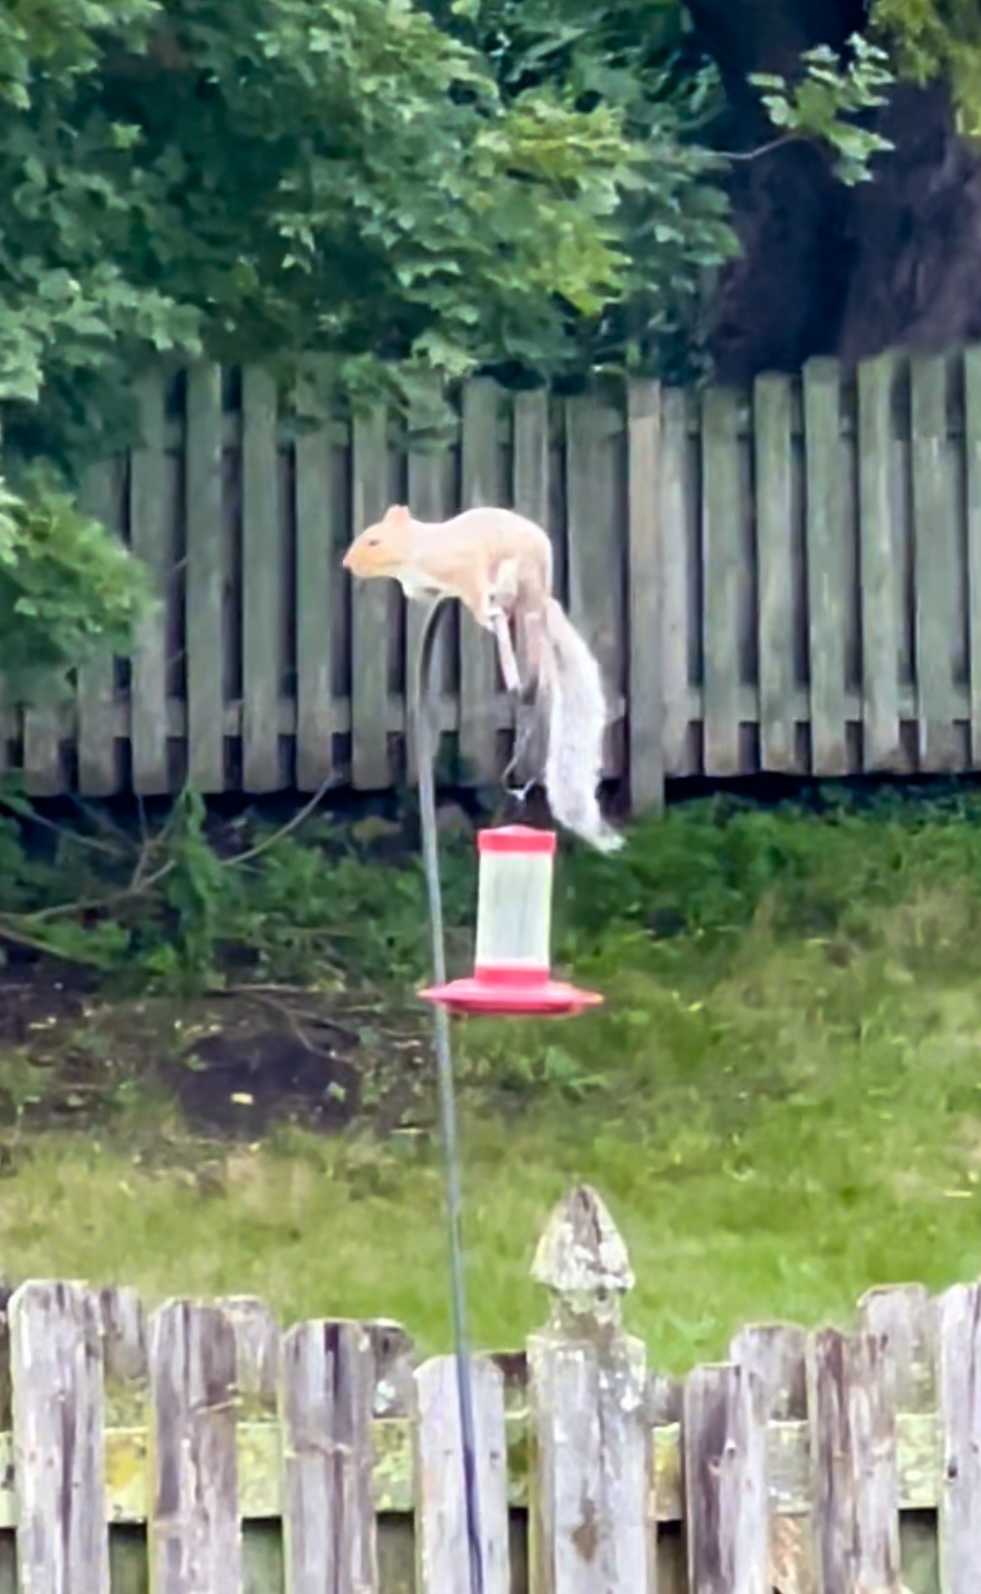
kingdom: Animalia
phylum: Chordata
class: Mammalia
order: Rodentia
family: Sciuridae
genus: Sciurus
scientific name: Sciurus carolinensis
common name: Eastern gray squirrel
